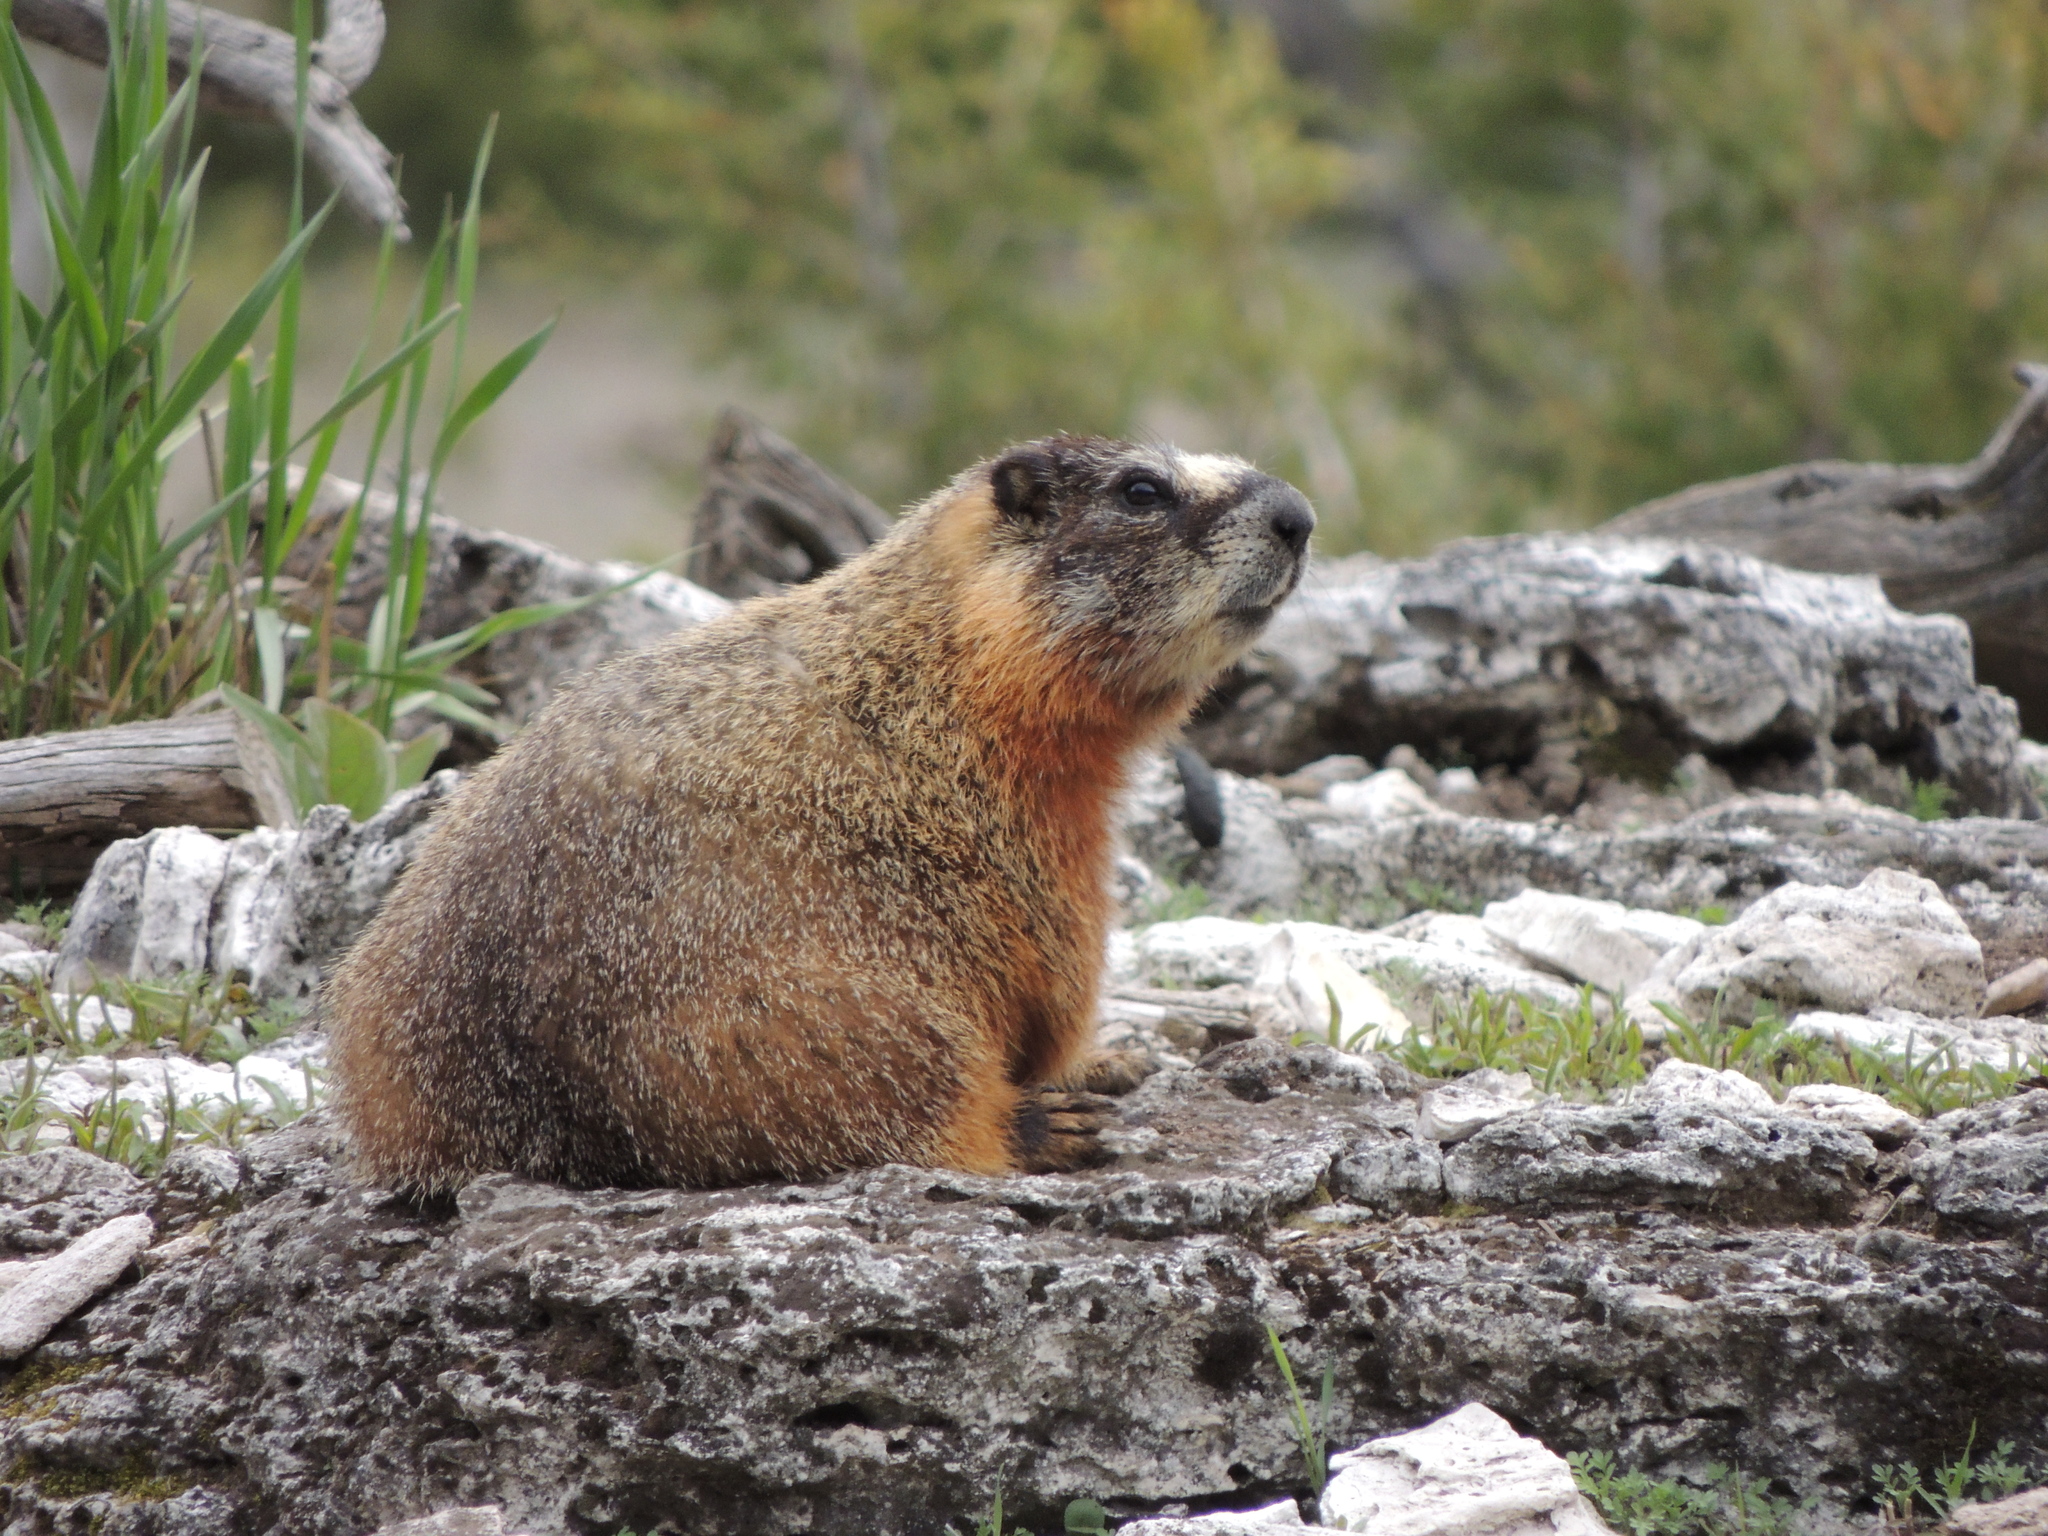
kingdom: Animalia
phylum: Chordata
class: Mammalia
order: Rodentia
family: Sciuridae
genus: Marmota
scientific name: Marmota flaviventris
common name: Yellow-bellied marmot
